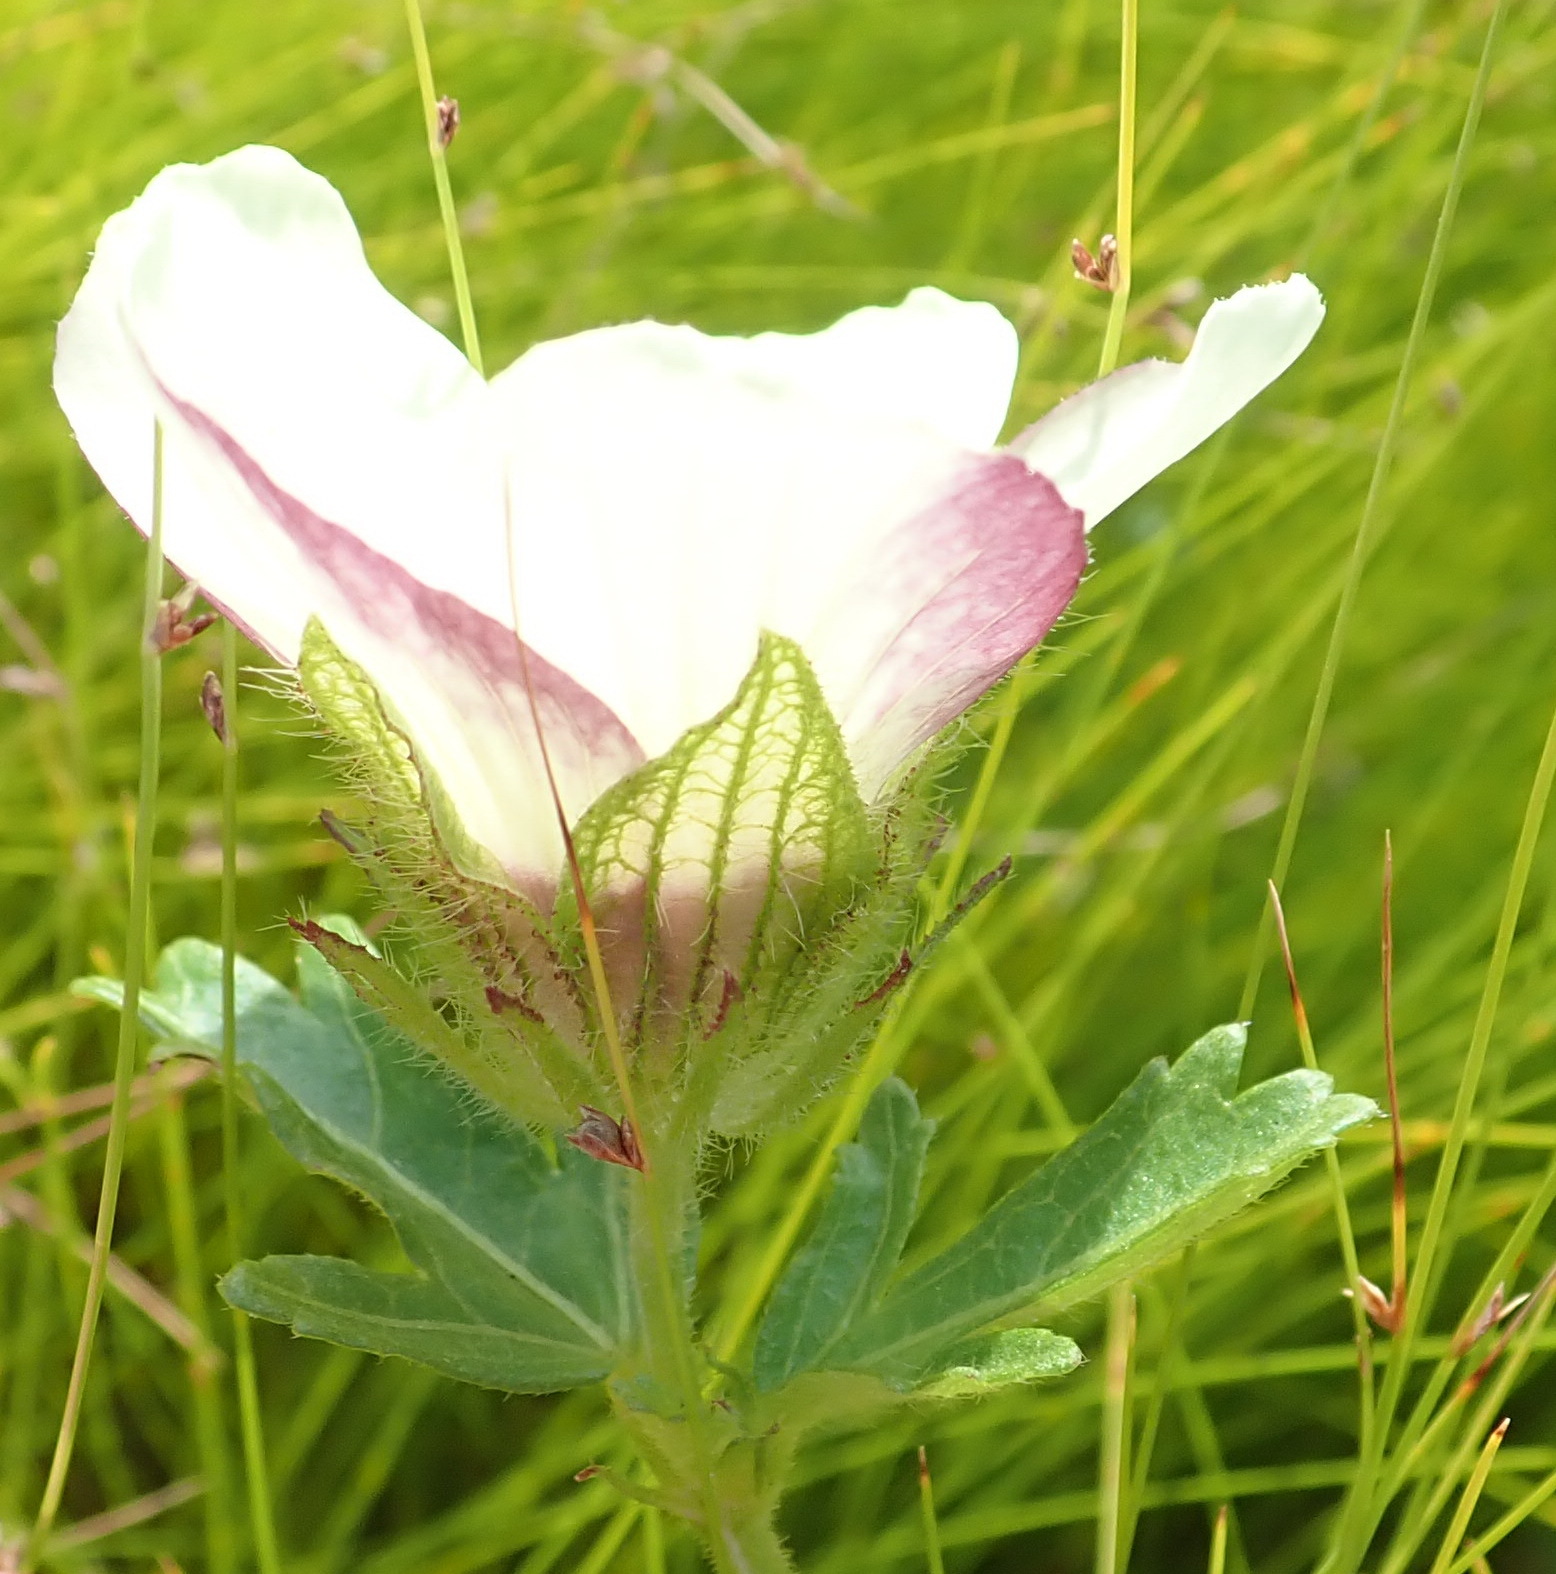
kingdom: Plantae
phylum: Tracheophyta
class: Magnoliopsida
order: Malvales
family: Malvaceae
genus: Hibiscus
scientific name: Hibiscus trionum
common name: Bladder ketmia
